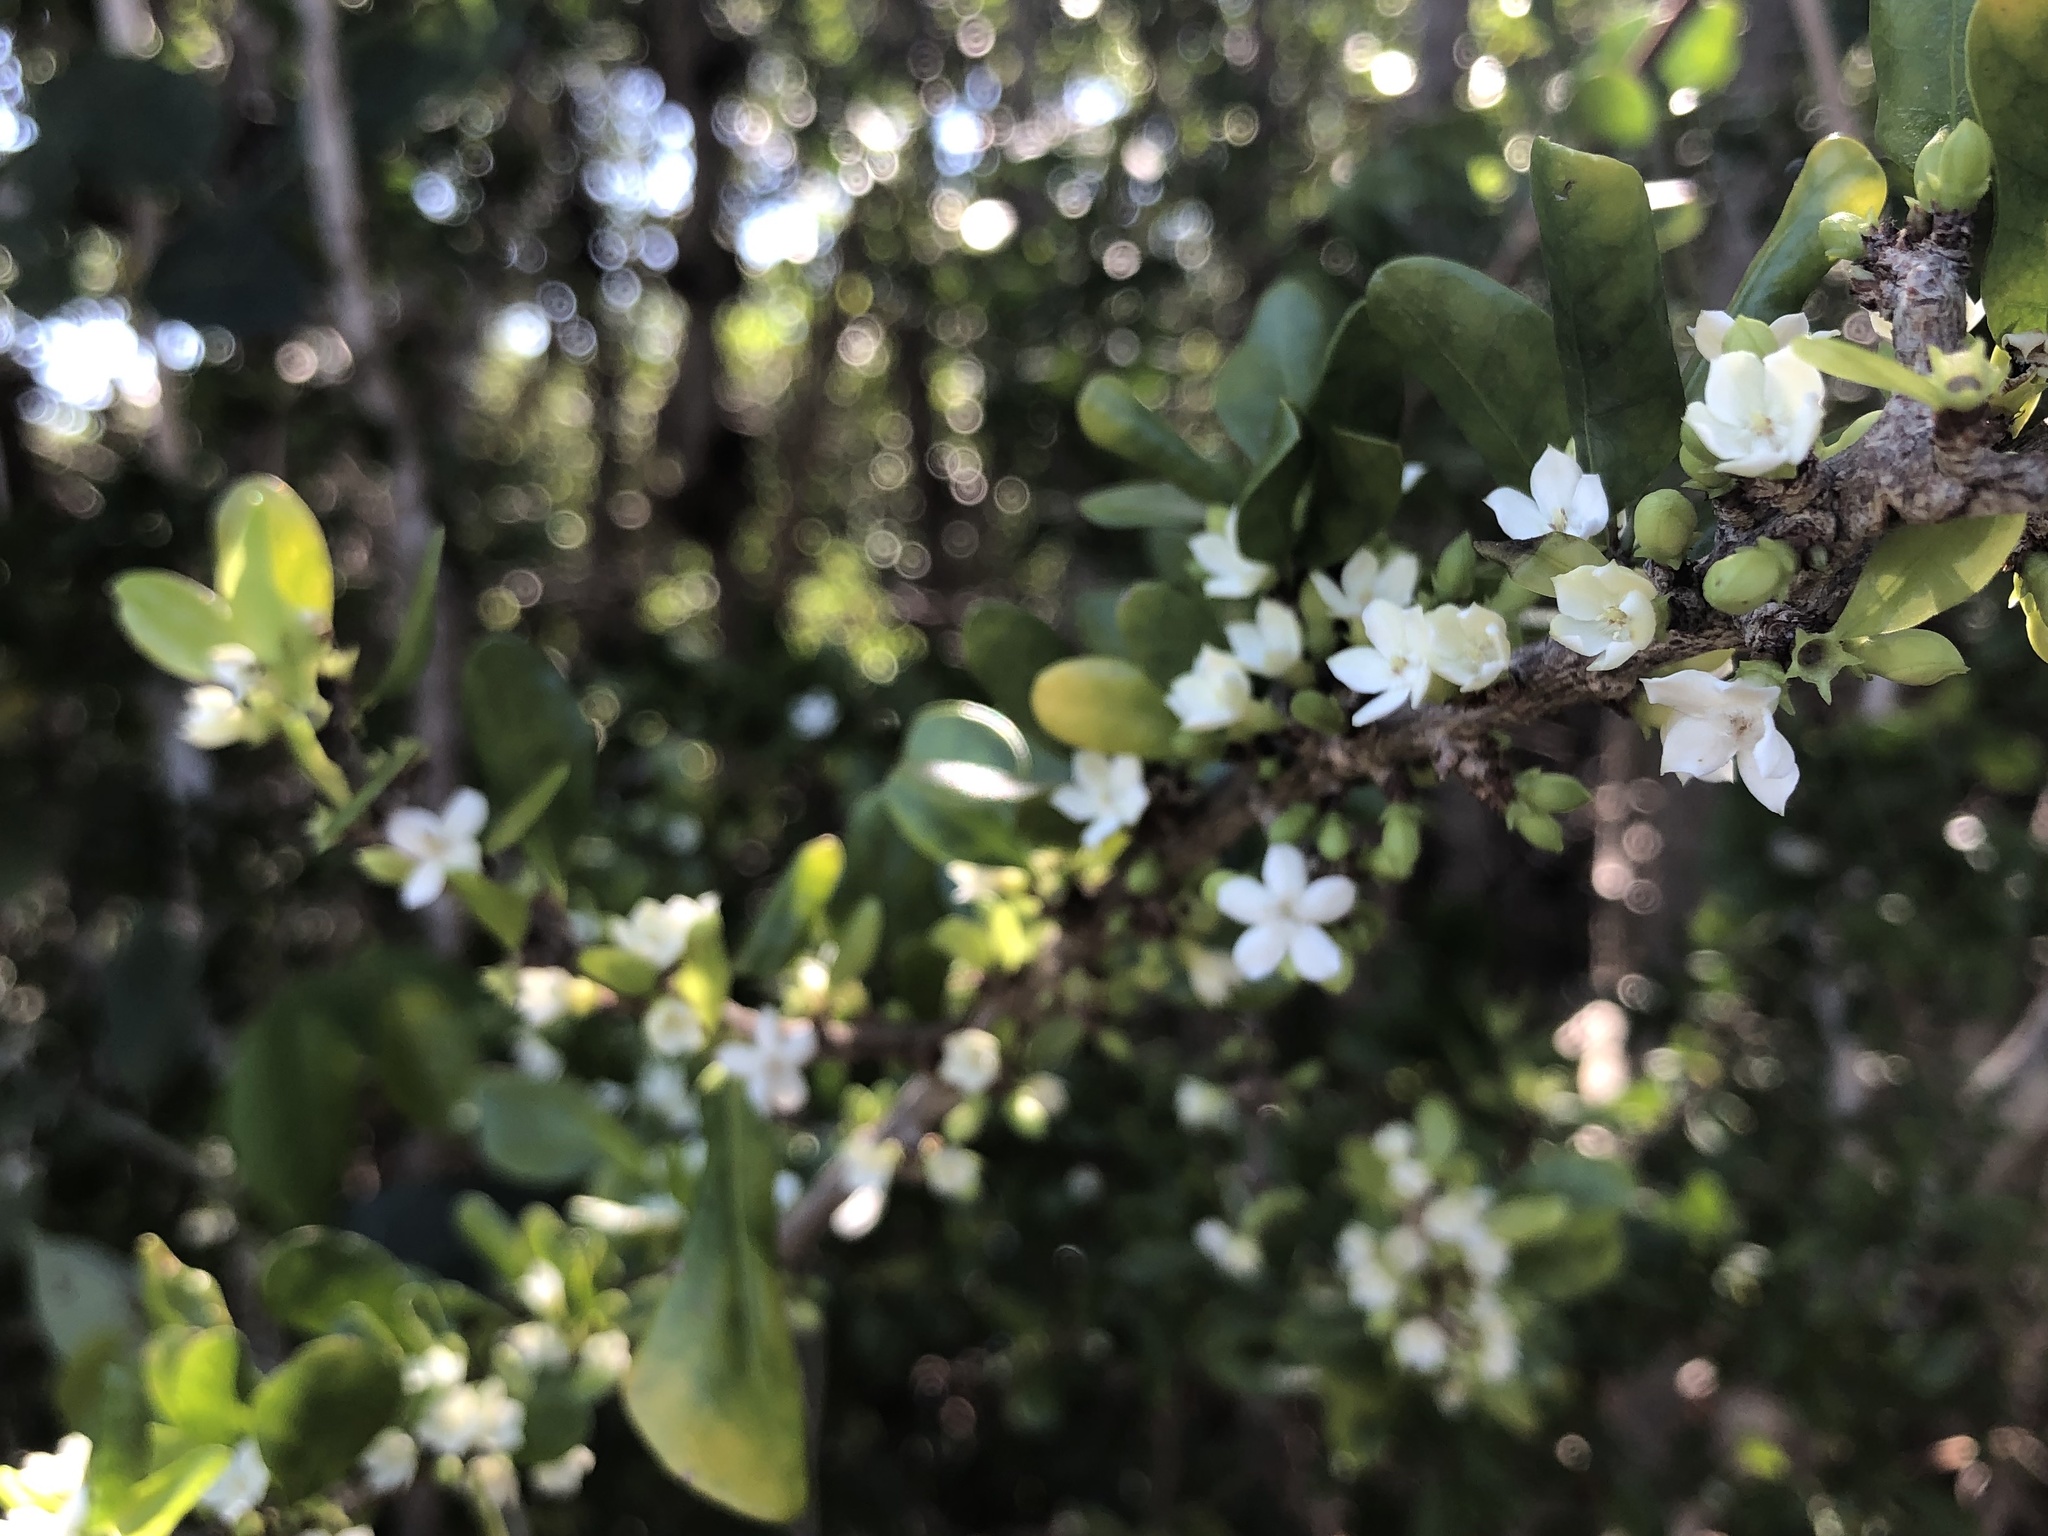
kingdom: Plantae
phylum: Tracheophyta
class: Magnoliopsida
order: Gentianales
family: Rubiaceae
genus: Randia
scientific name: Randia aculeata
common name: Inkberry
